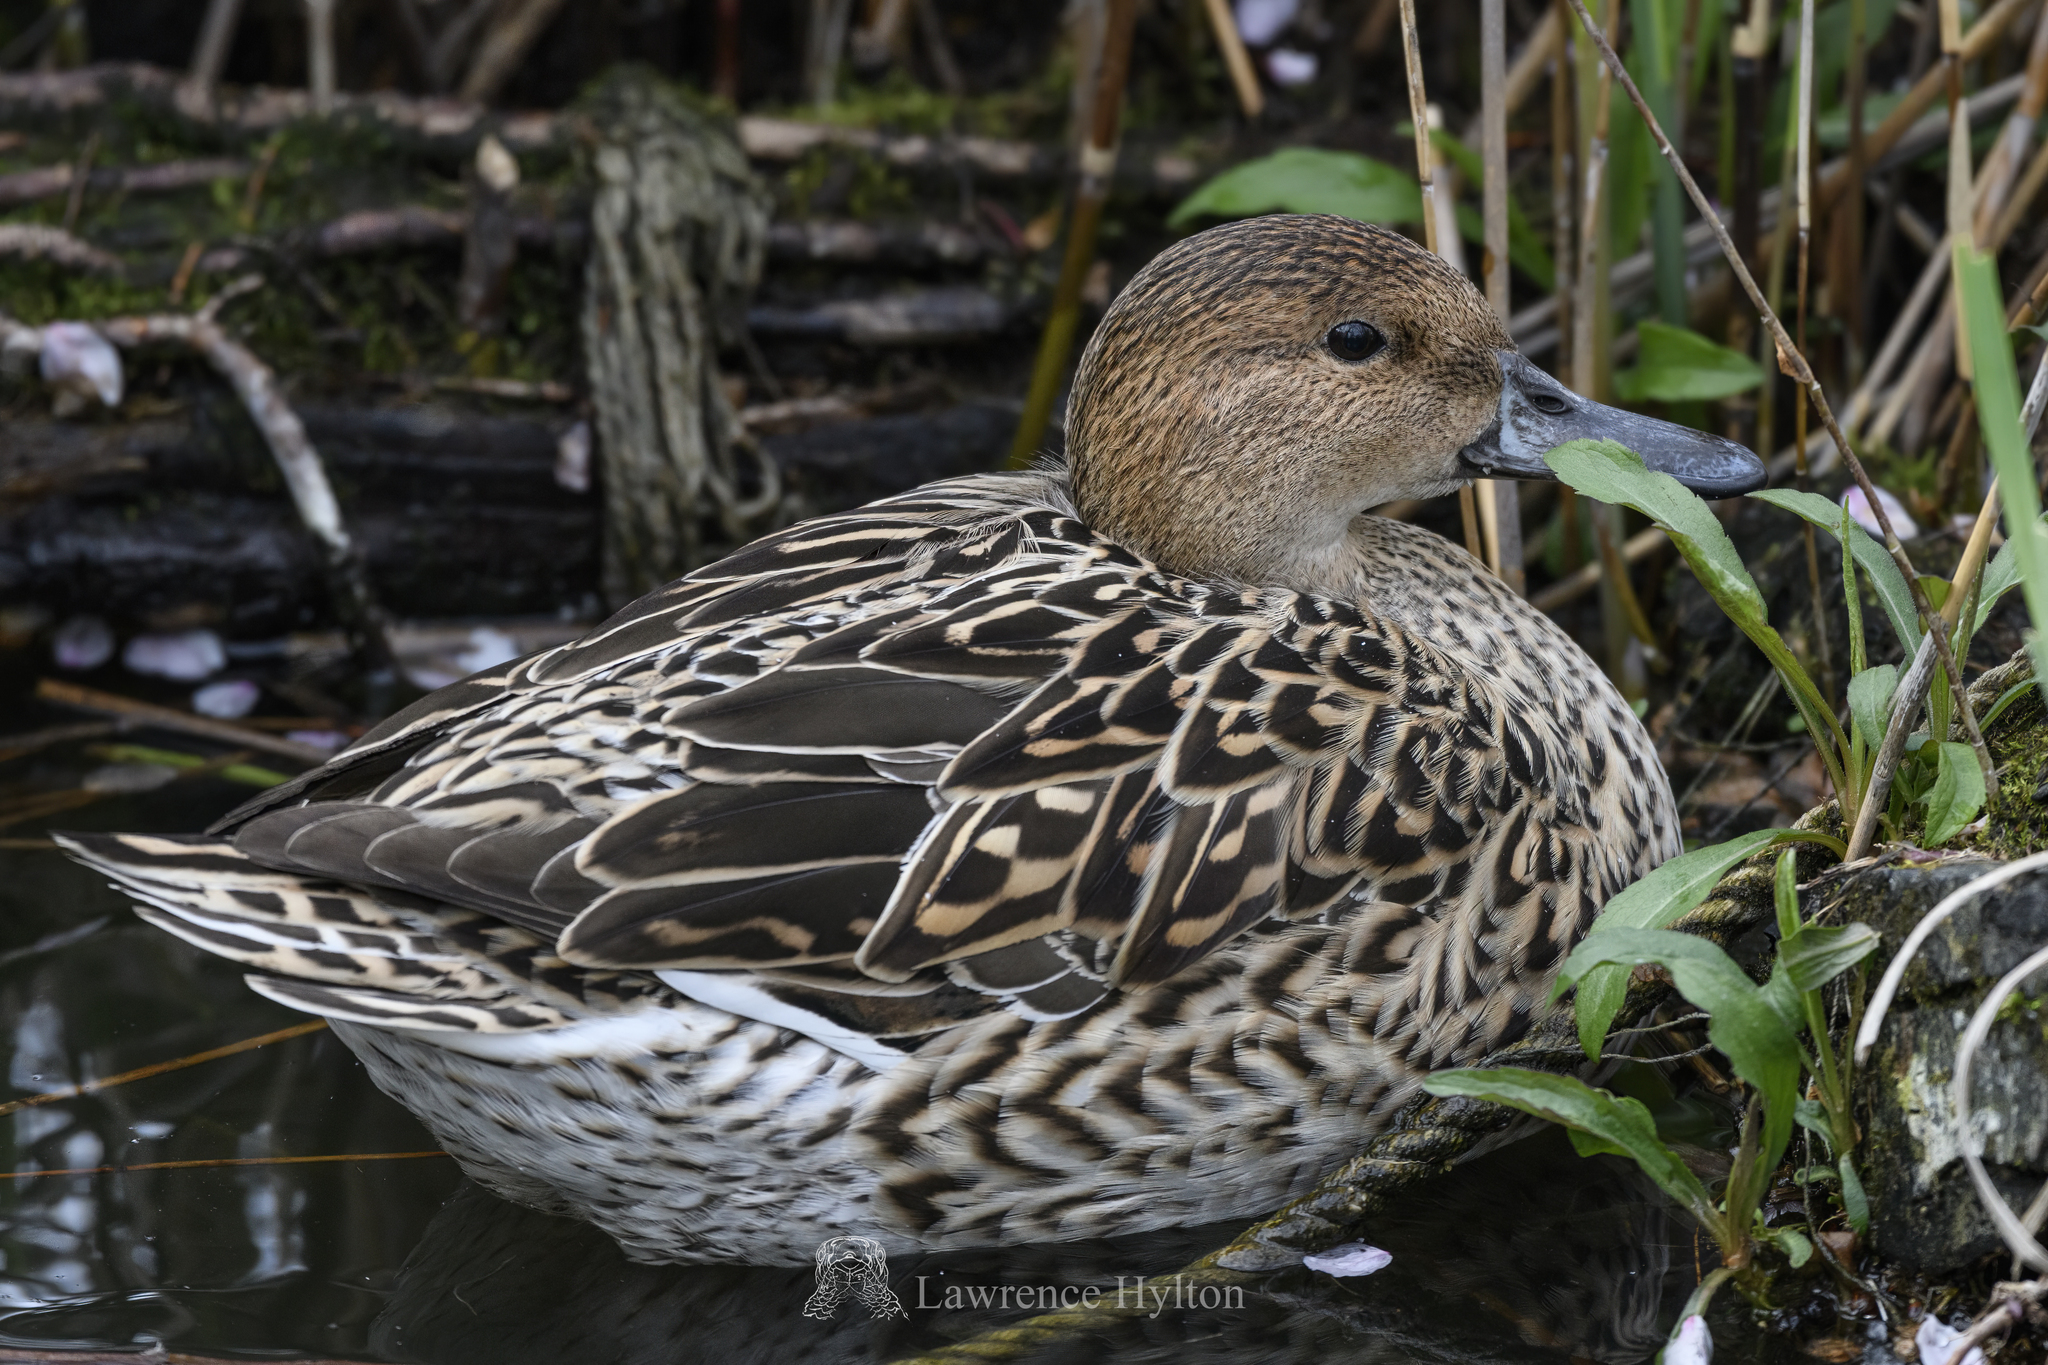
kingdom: Animalia
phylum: Chordata
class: Aves
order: Anseriformes
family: Anatidae
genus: Anas
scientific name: Anas acuta
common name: Northern pintail
